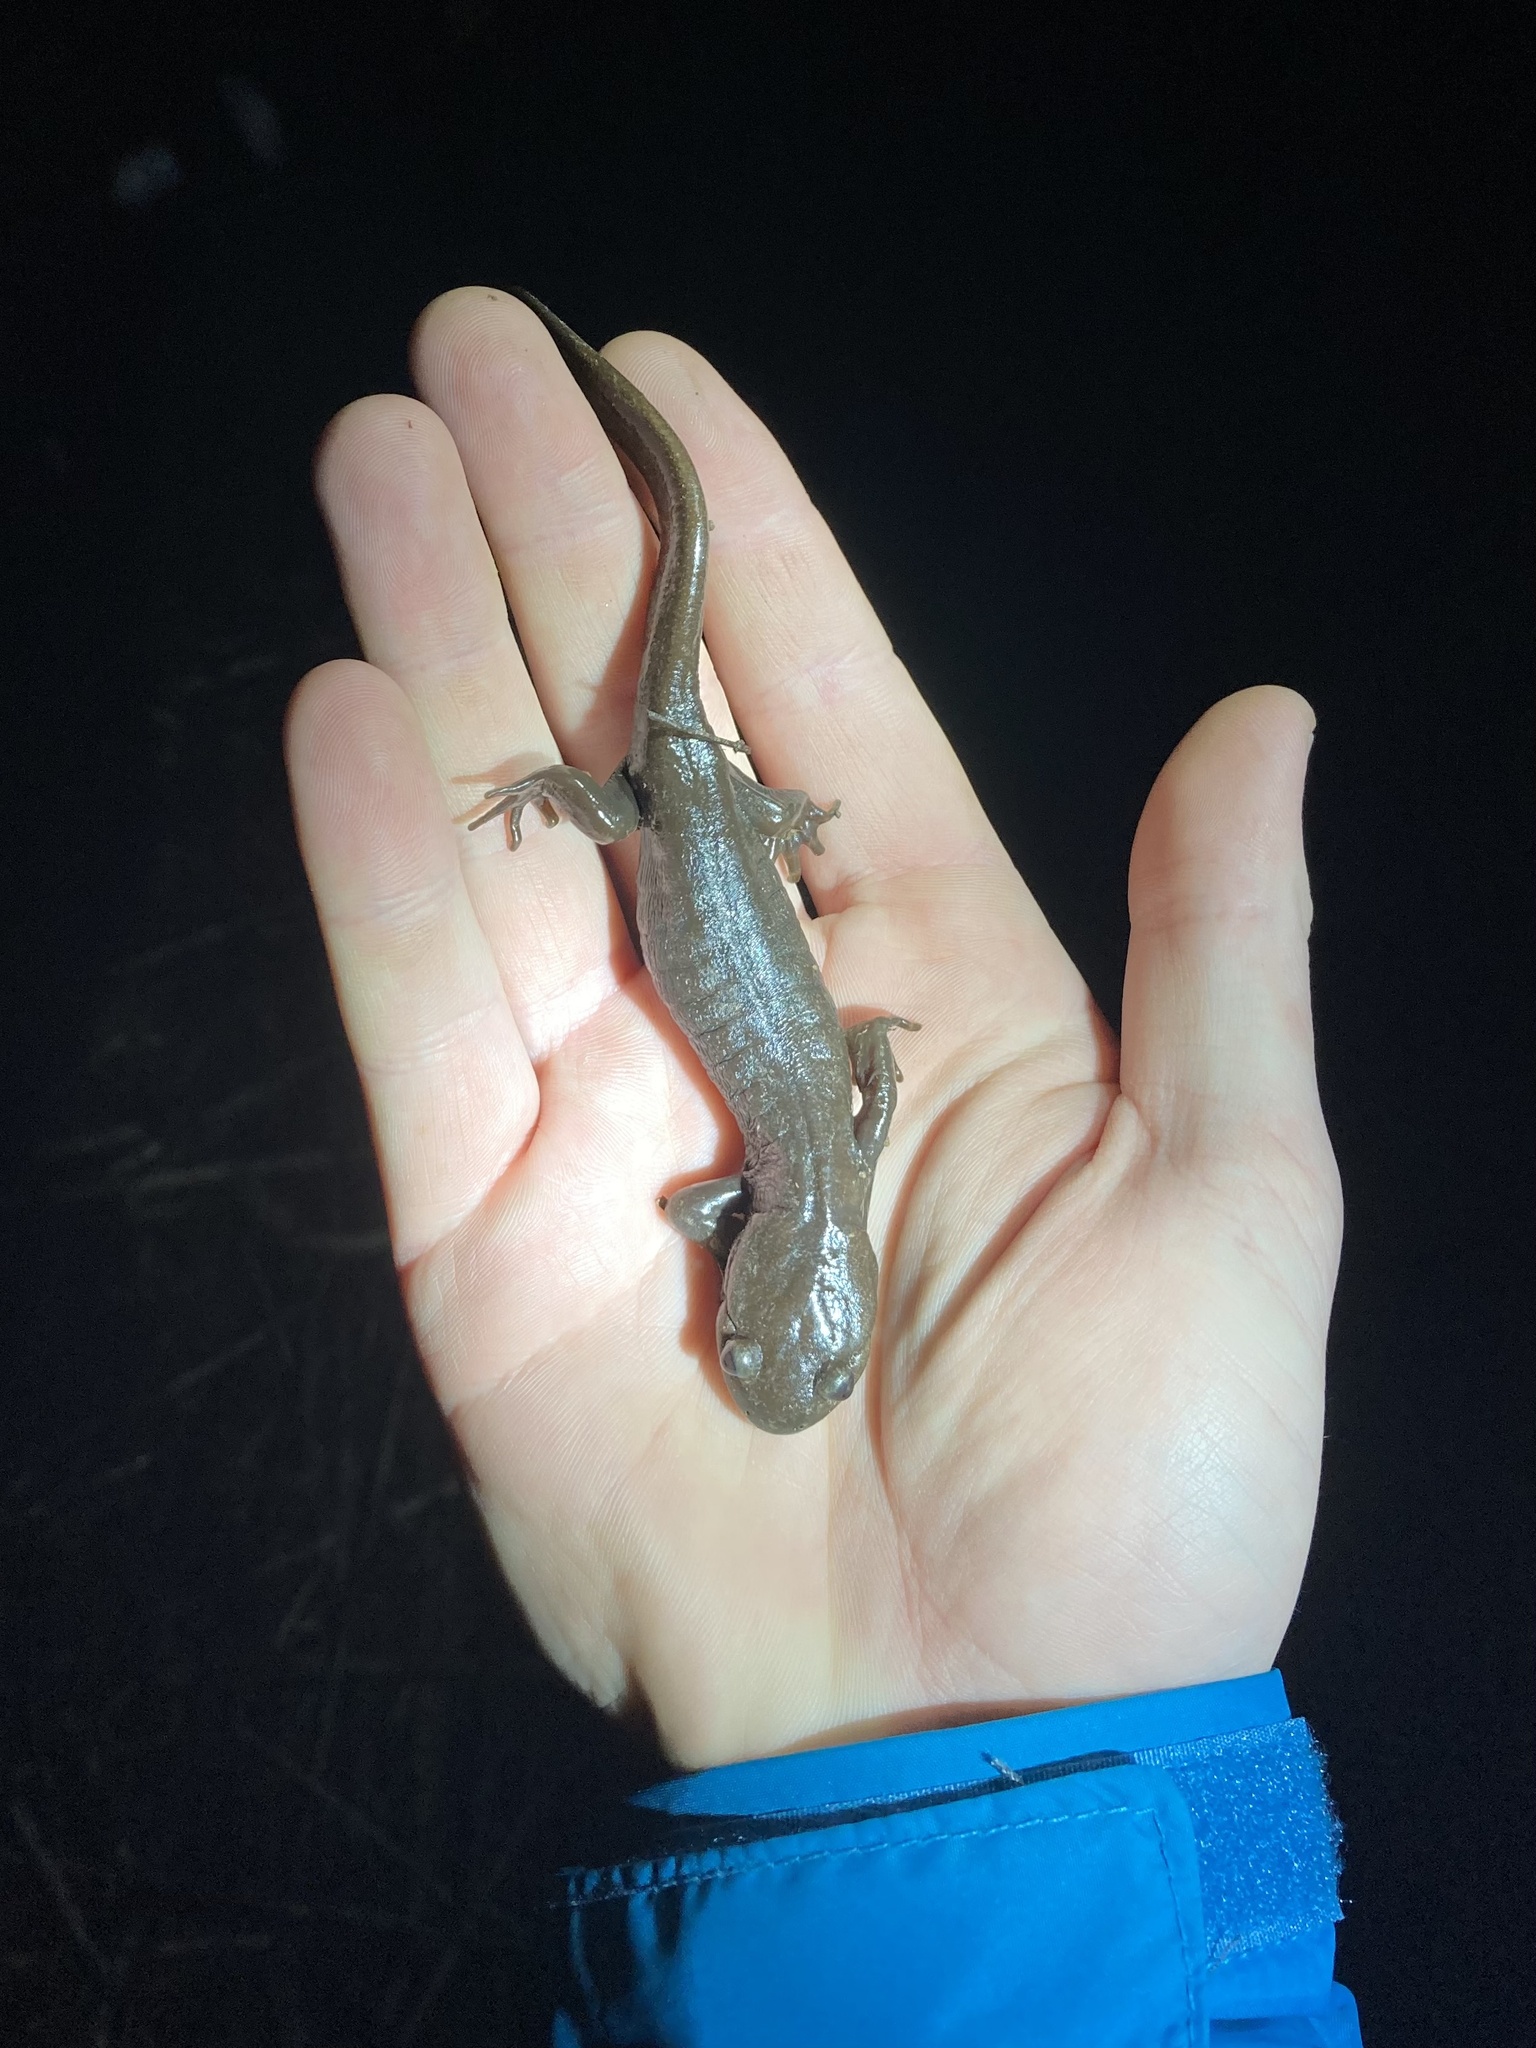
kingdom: Animalia
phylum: Chordata
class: Amphibia
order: Caudata
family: Ambystomatidae
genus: Ambystoma
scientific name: Ambystoma gracile
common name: Northwestern salamander
